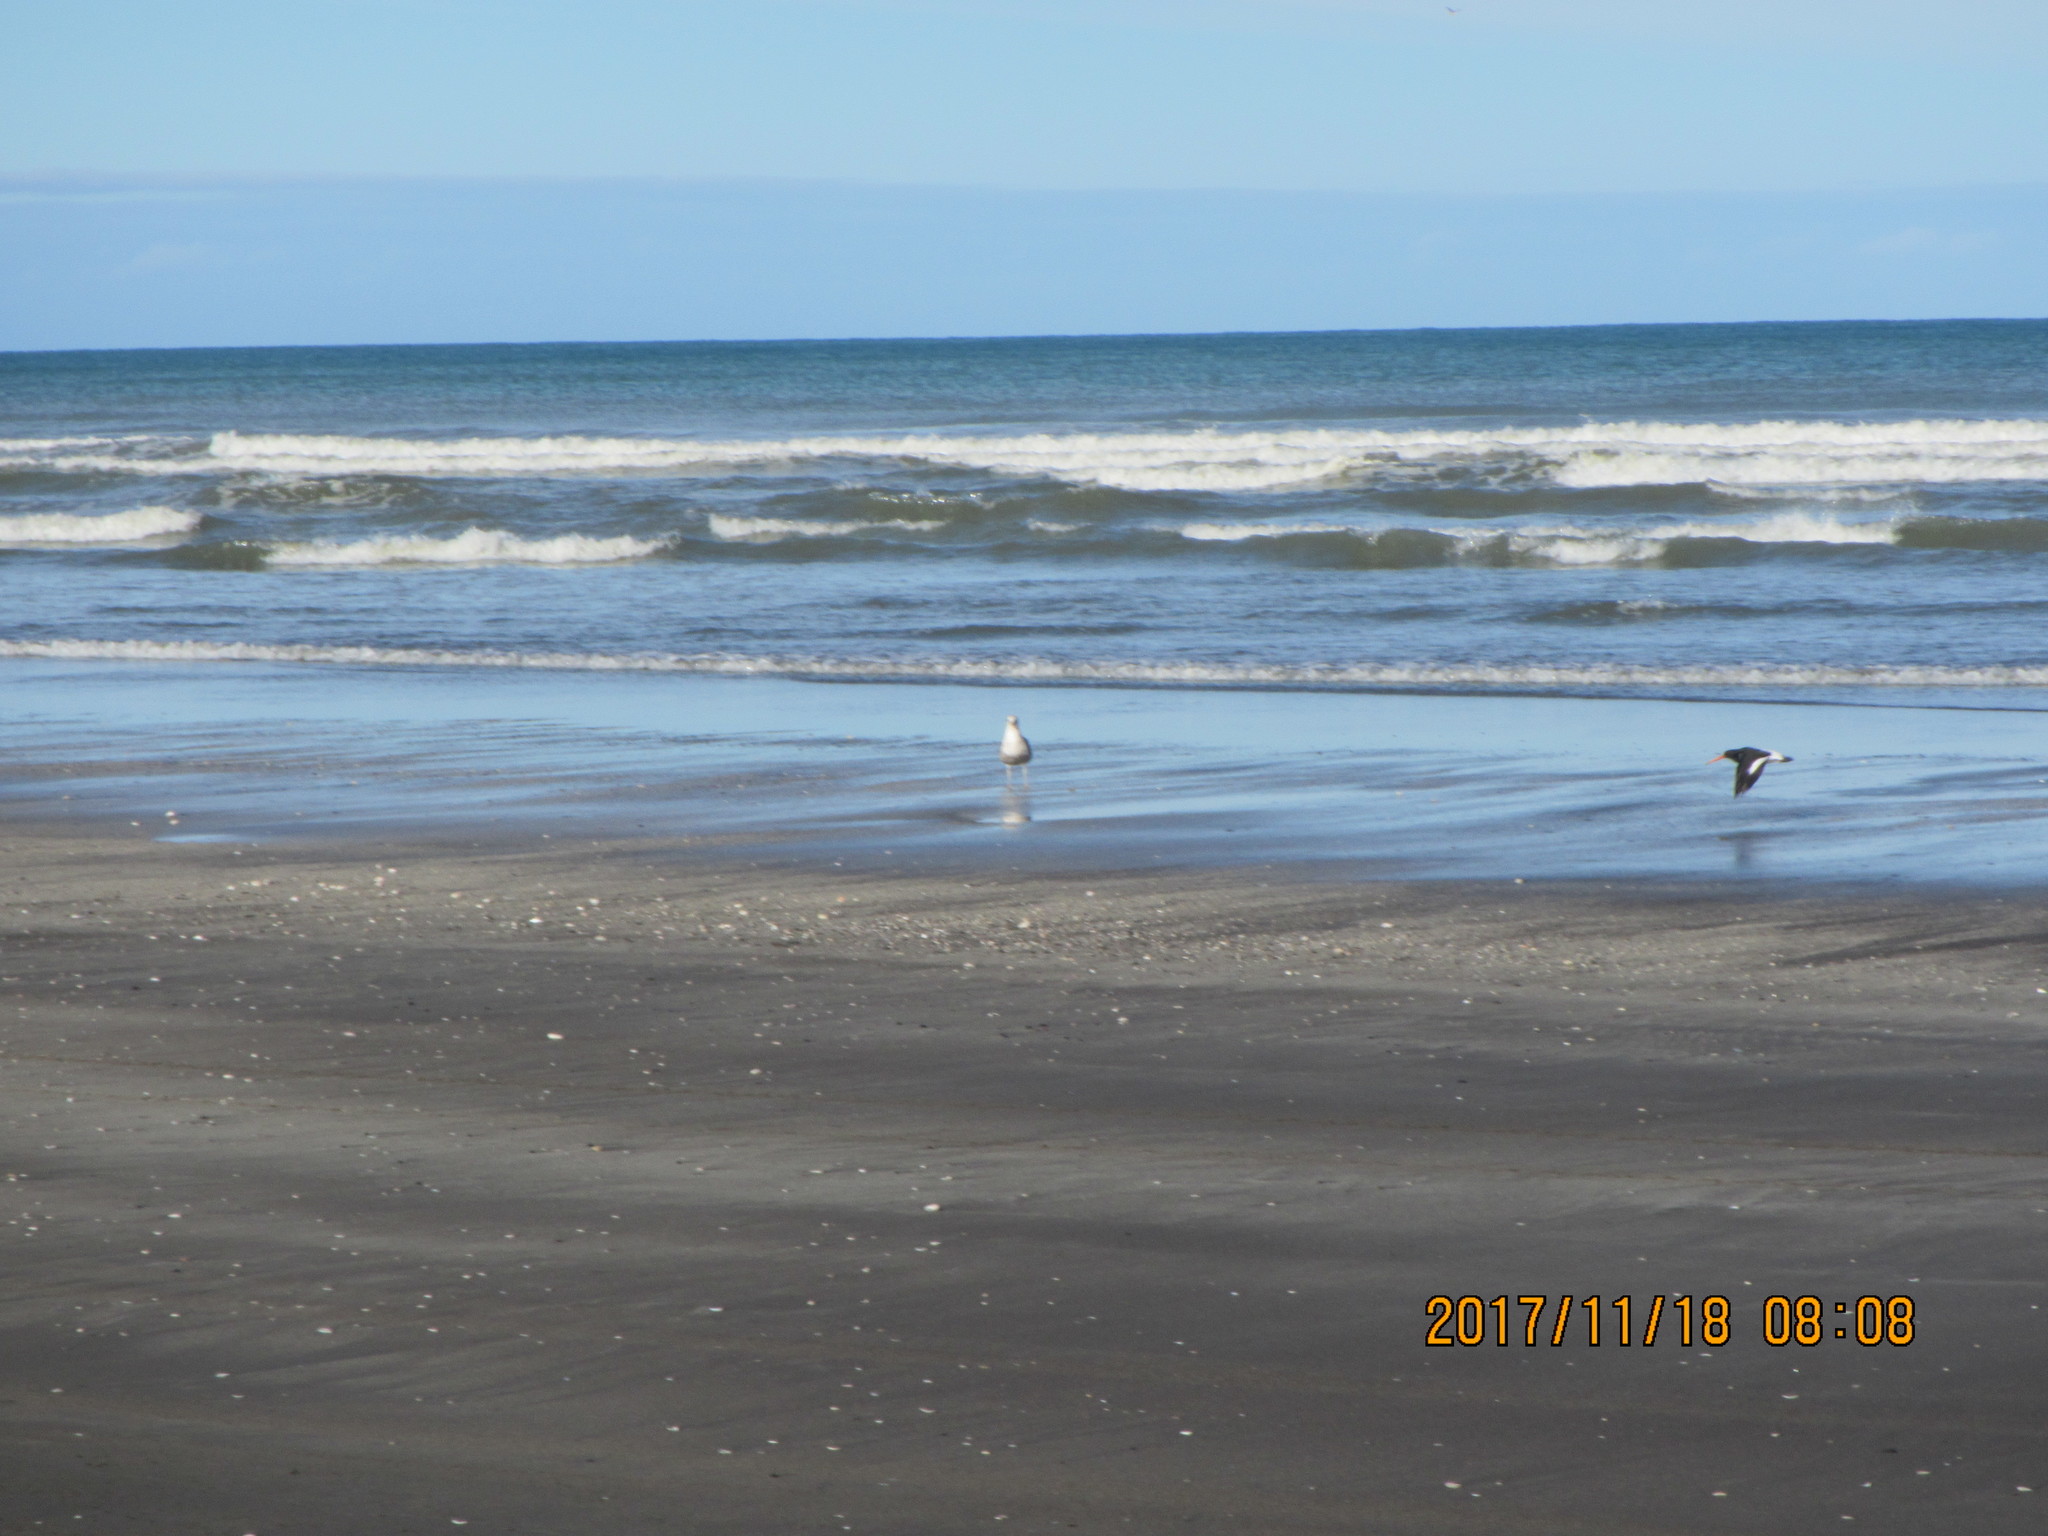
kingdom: Animalia
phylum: Chordata
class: Aves
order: Charadriiformes
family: Haematopodidae
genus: Haematopus
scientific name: Haematopus finschi
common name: South island oystercatcher
